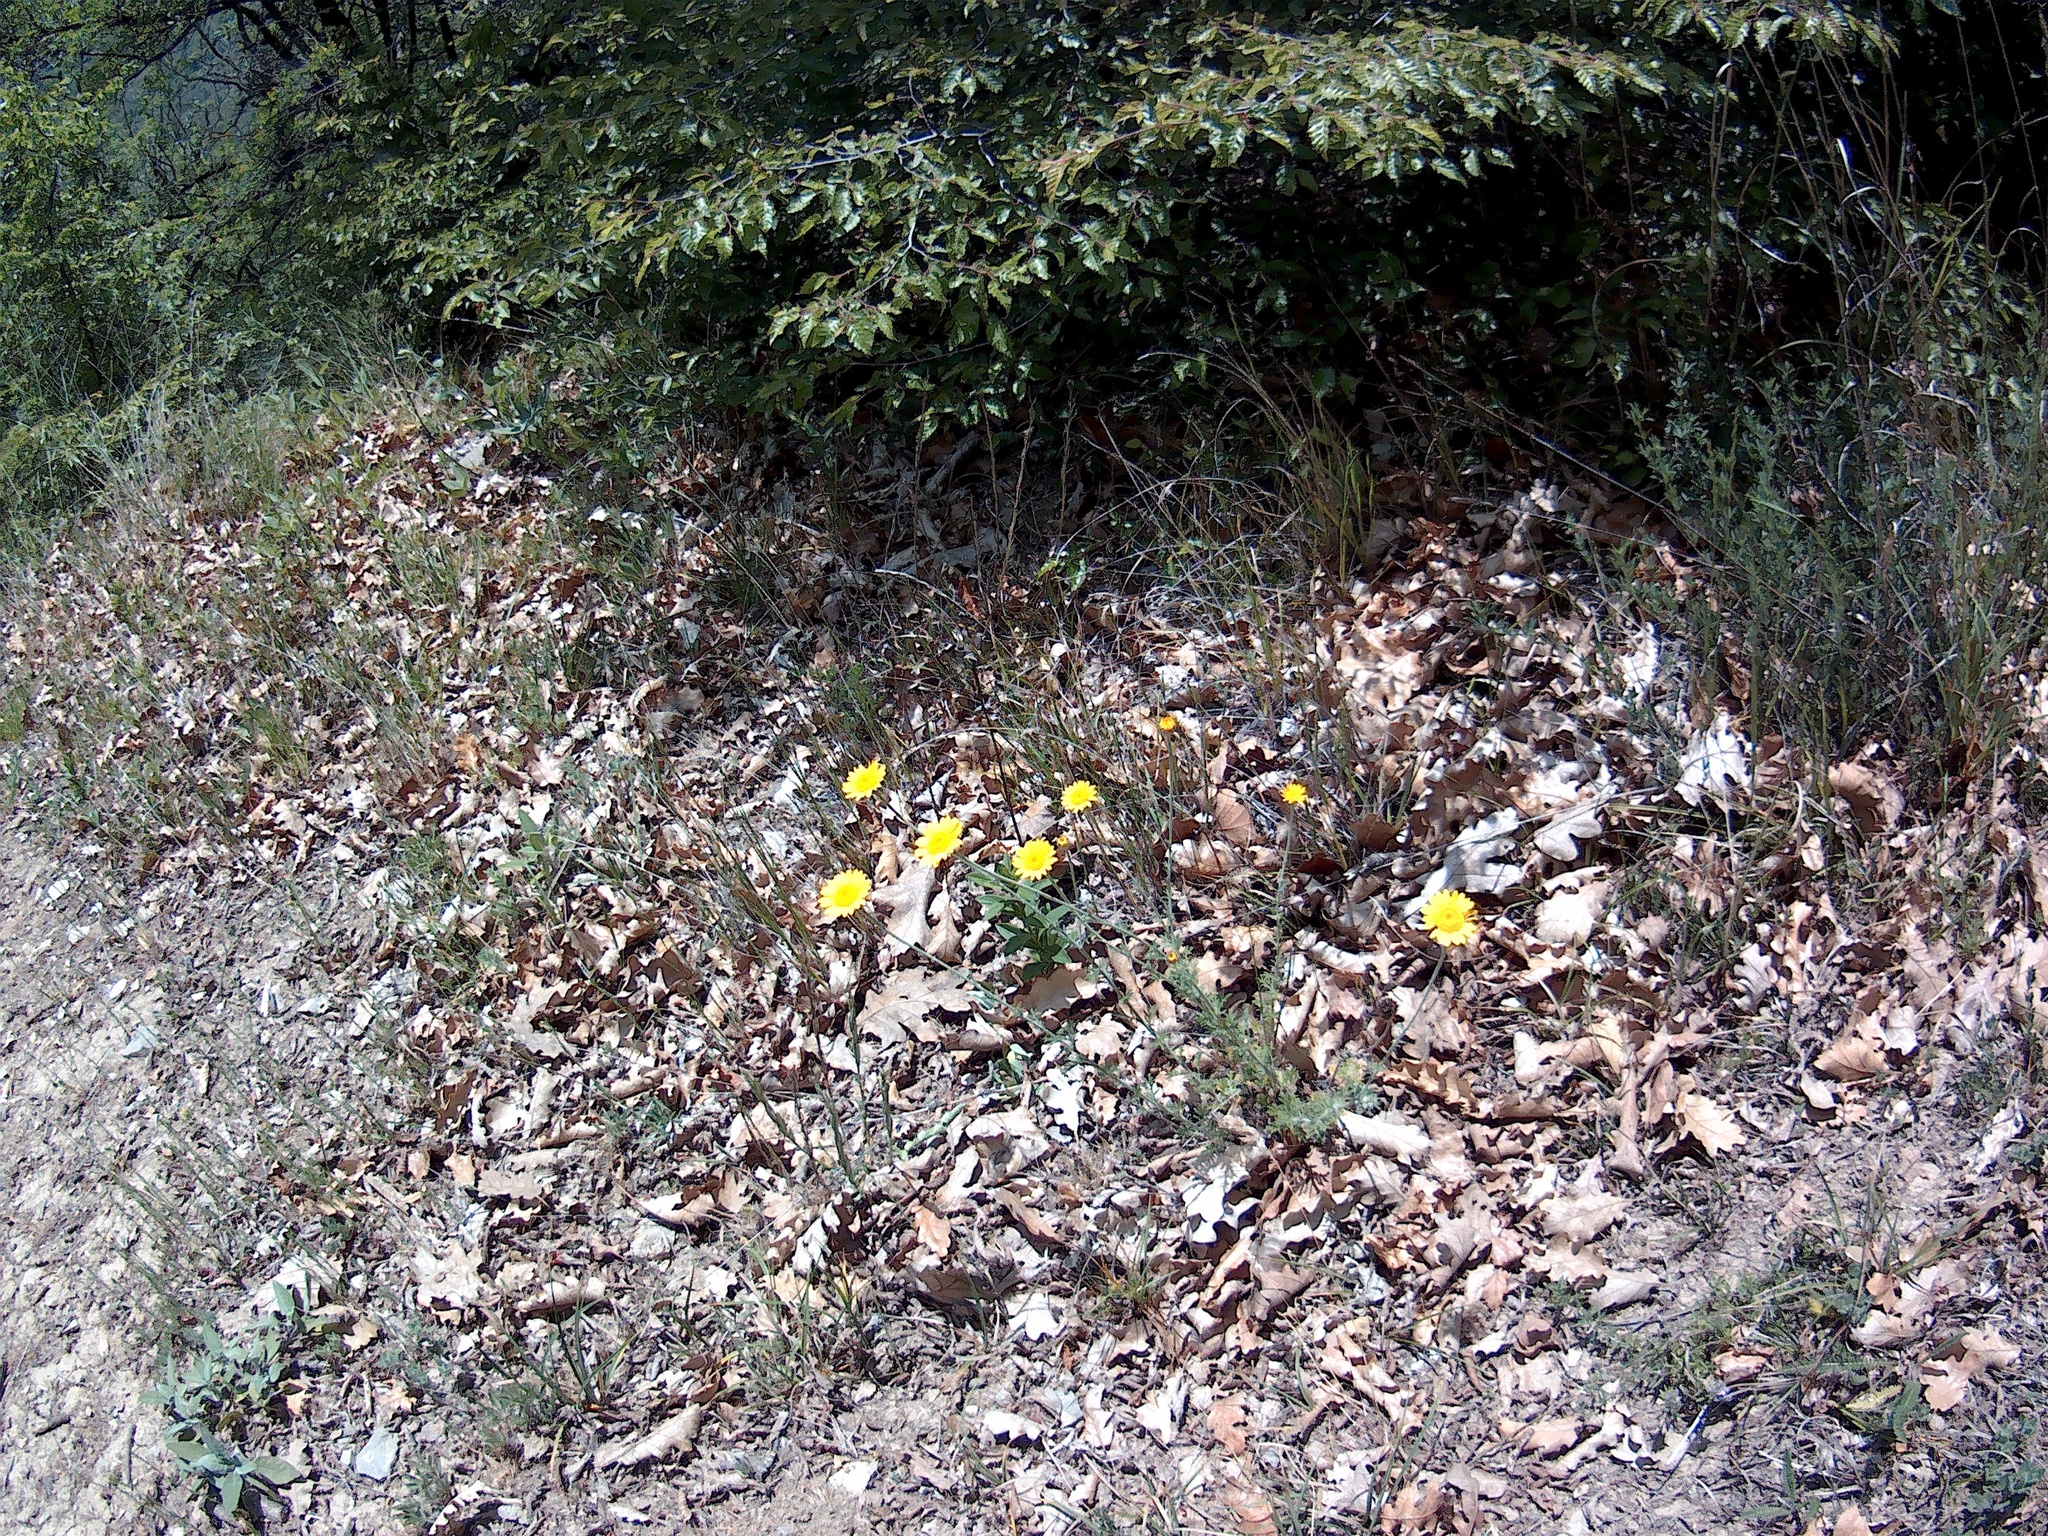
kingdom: Plantae
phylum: Tracheophyta
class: Magnoliopsida
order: Asterales
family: Asteraceae
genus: Cota
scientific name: Cota tinctoria
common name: Golden chamomile
